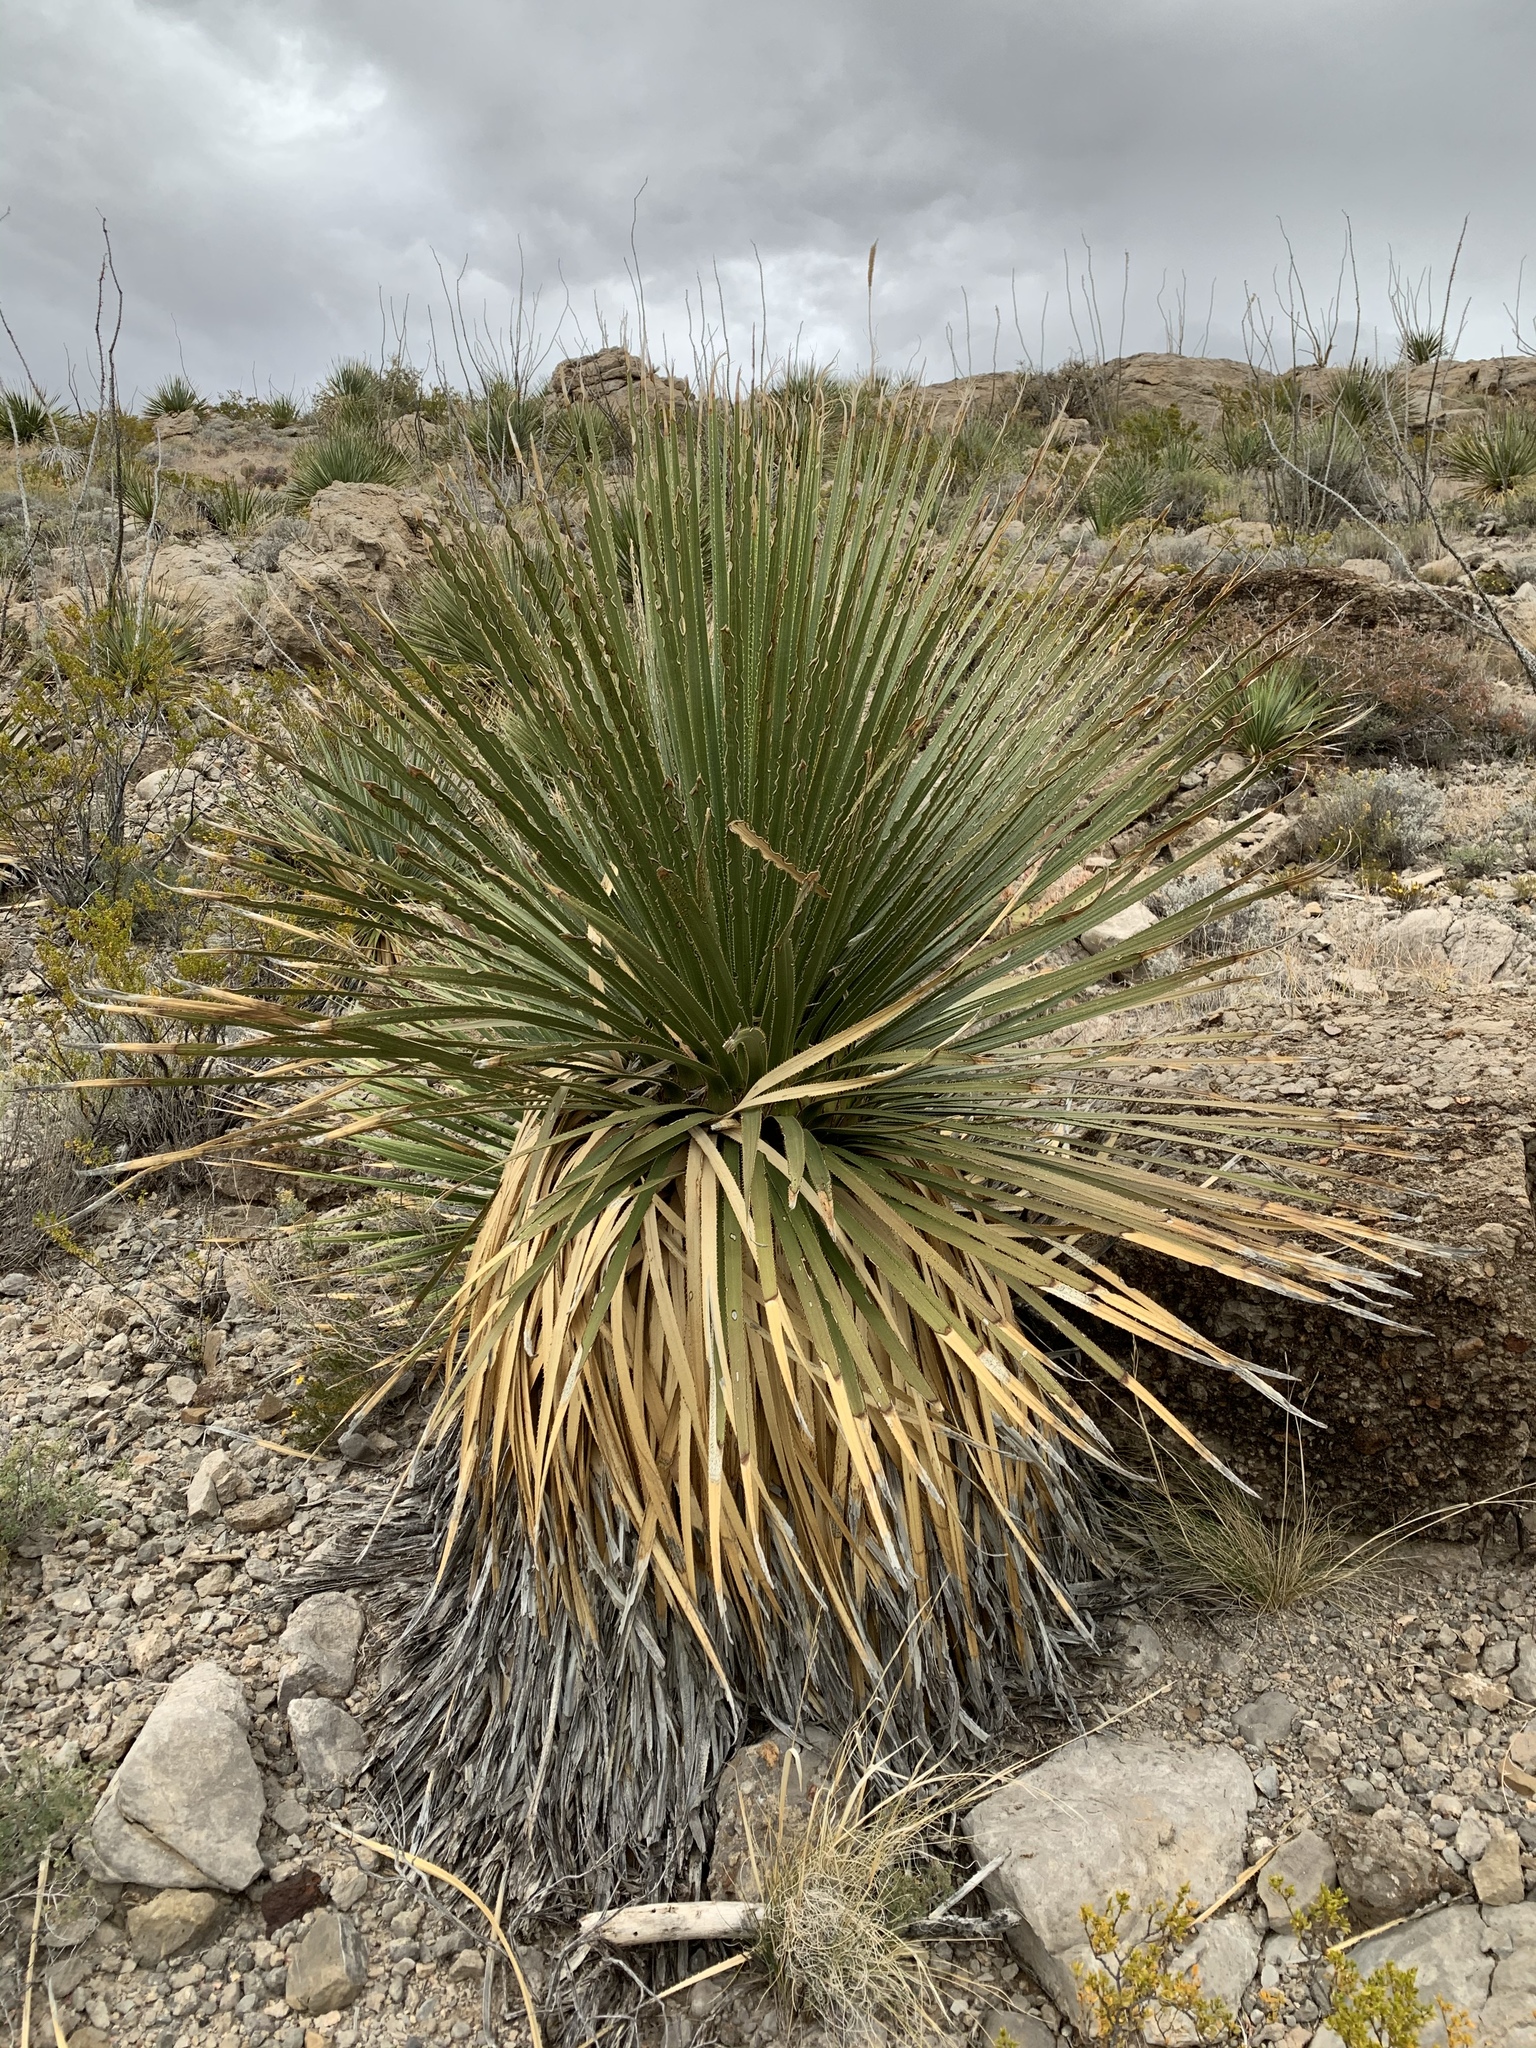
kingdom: Plantae
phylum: Tracheophyta
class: Liliopsida
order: Asparagales
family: Asparagaceae
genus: Dasylirion
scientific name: Dasylirion wheeleri
